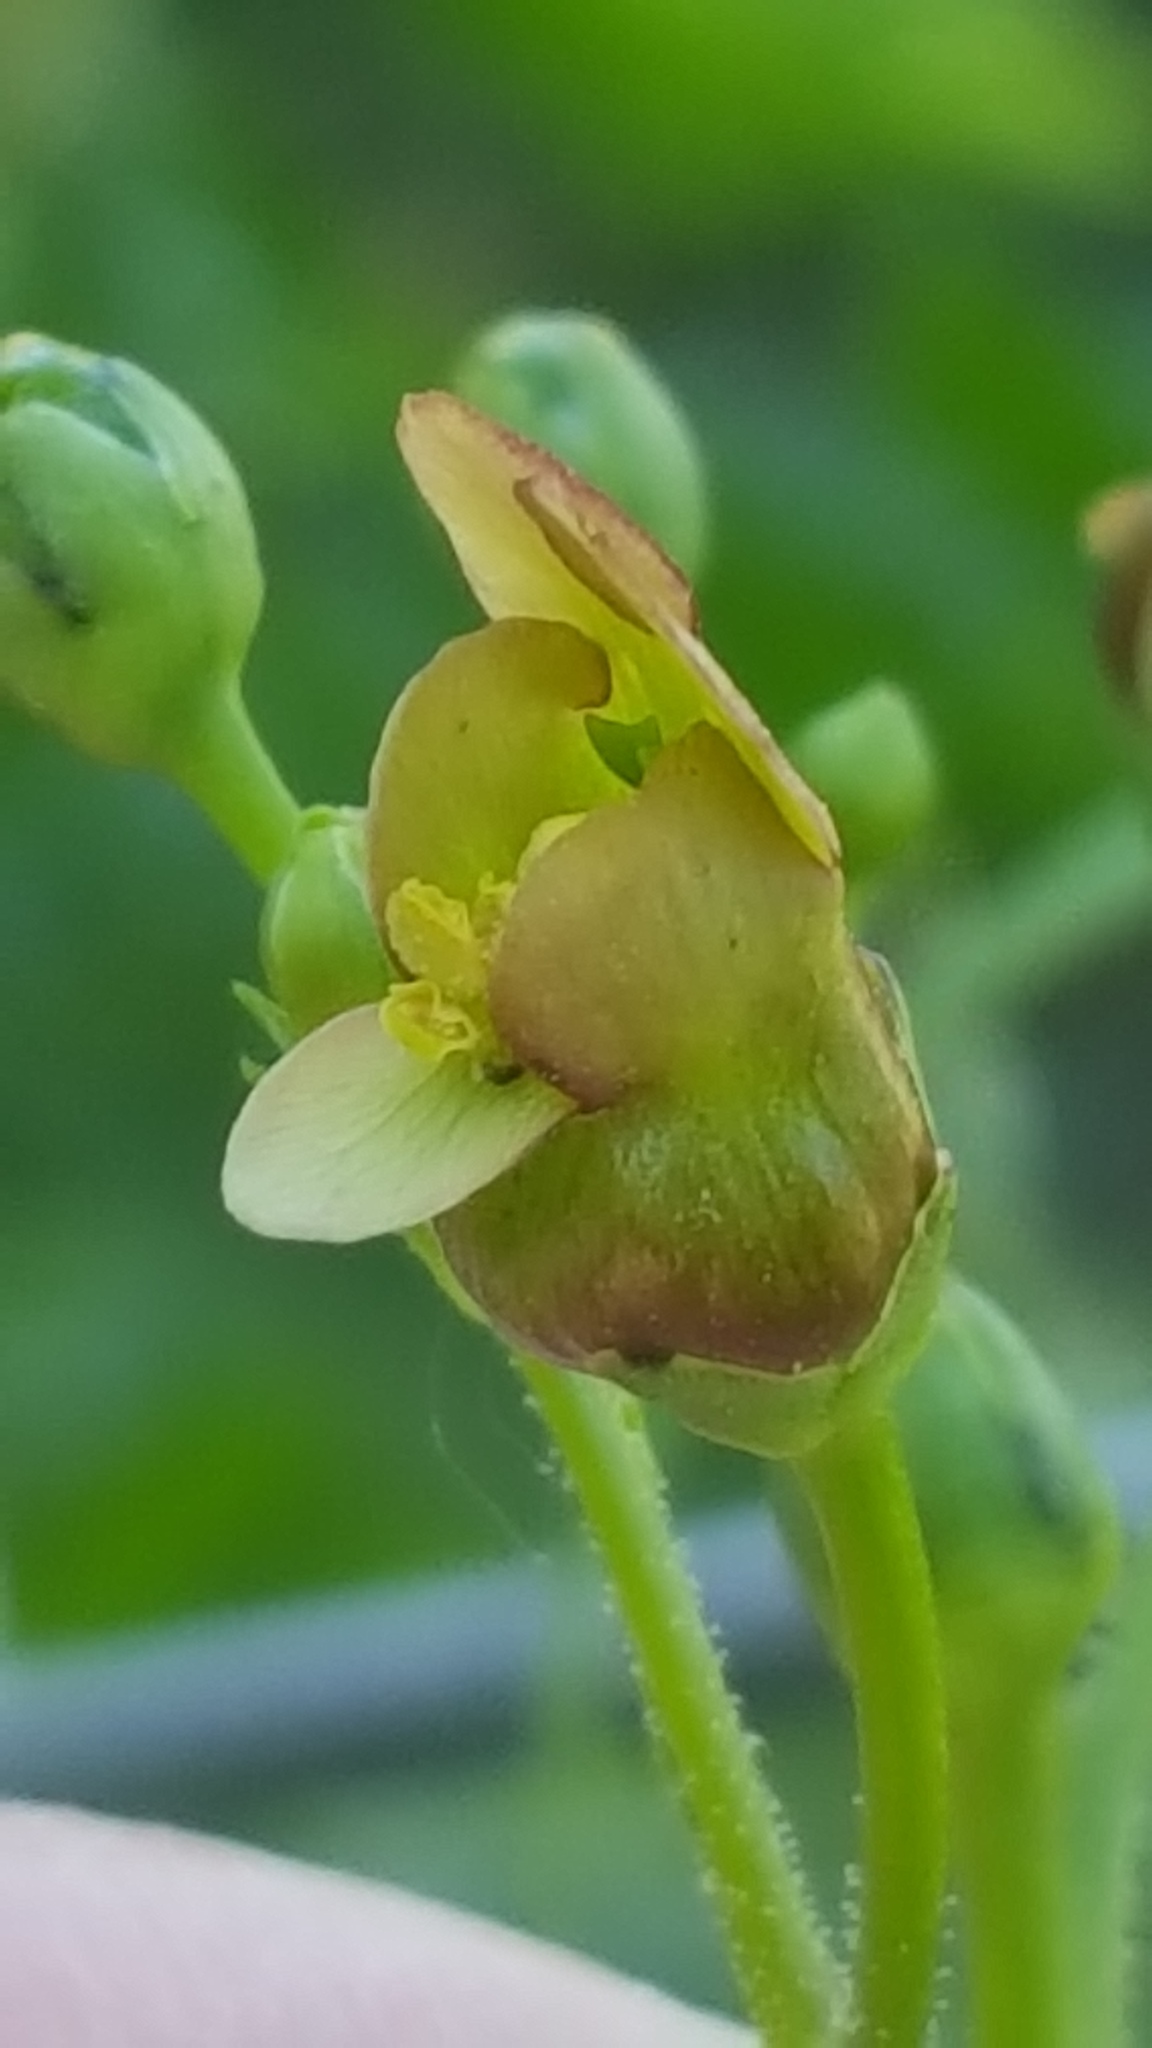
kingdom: Plantae
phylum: Tracheophyta
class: Magnoliopsida
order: Lamiales
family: Scrophulariaceae
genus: Scrophularia
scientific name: Scrophularia lanceolata
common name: American figwort
